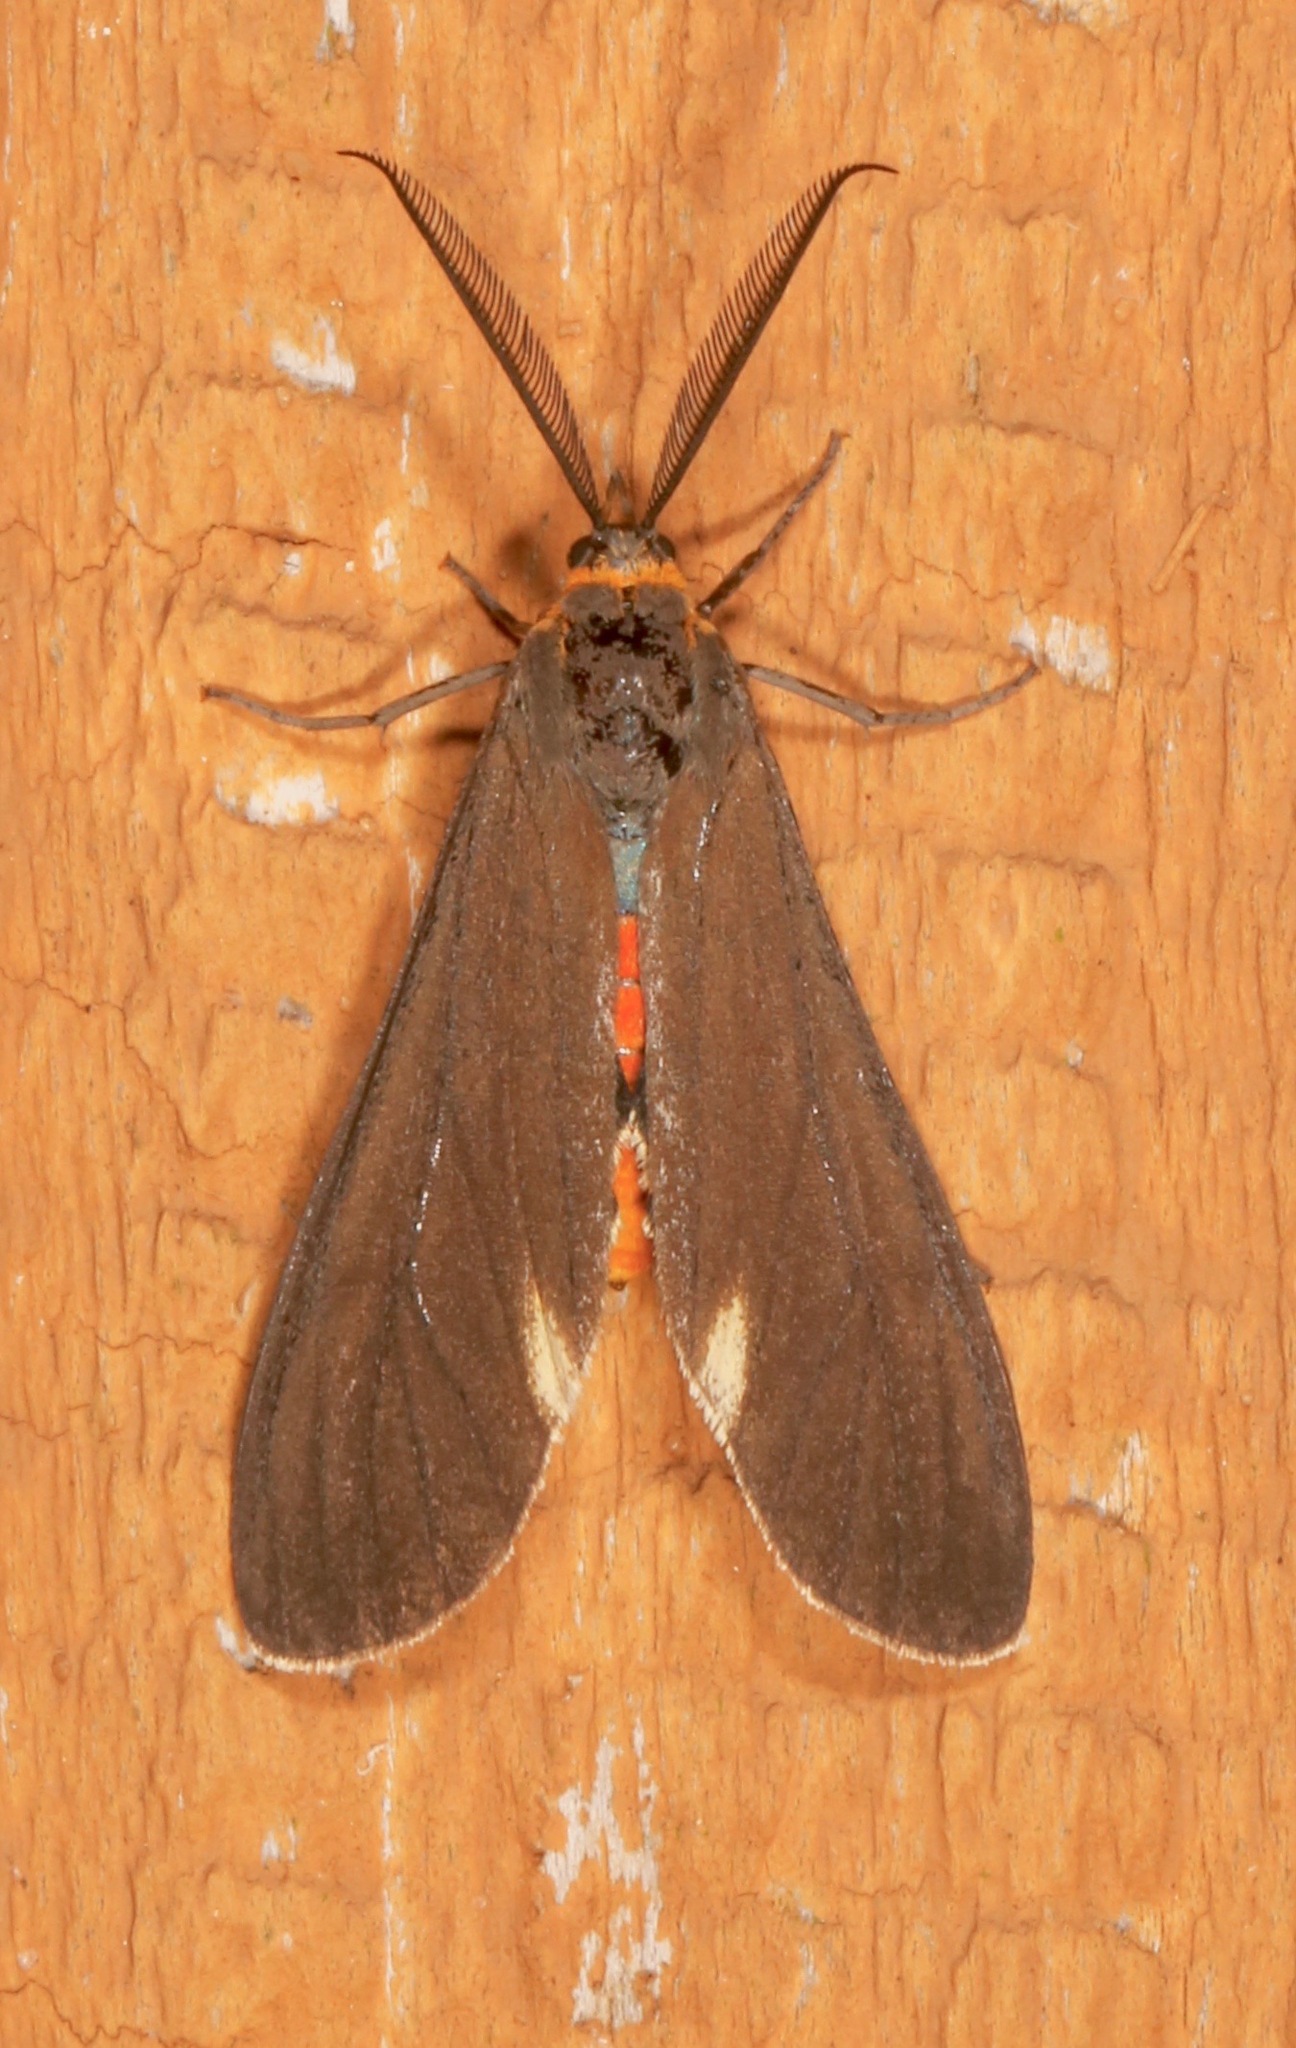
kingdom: Animalia
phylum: Arthropoda
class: Insecta
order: Lepidoptera
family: Erebidae
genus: Dahana
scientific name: Dahana atripennis
